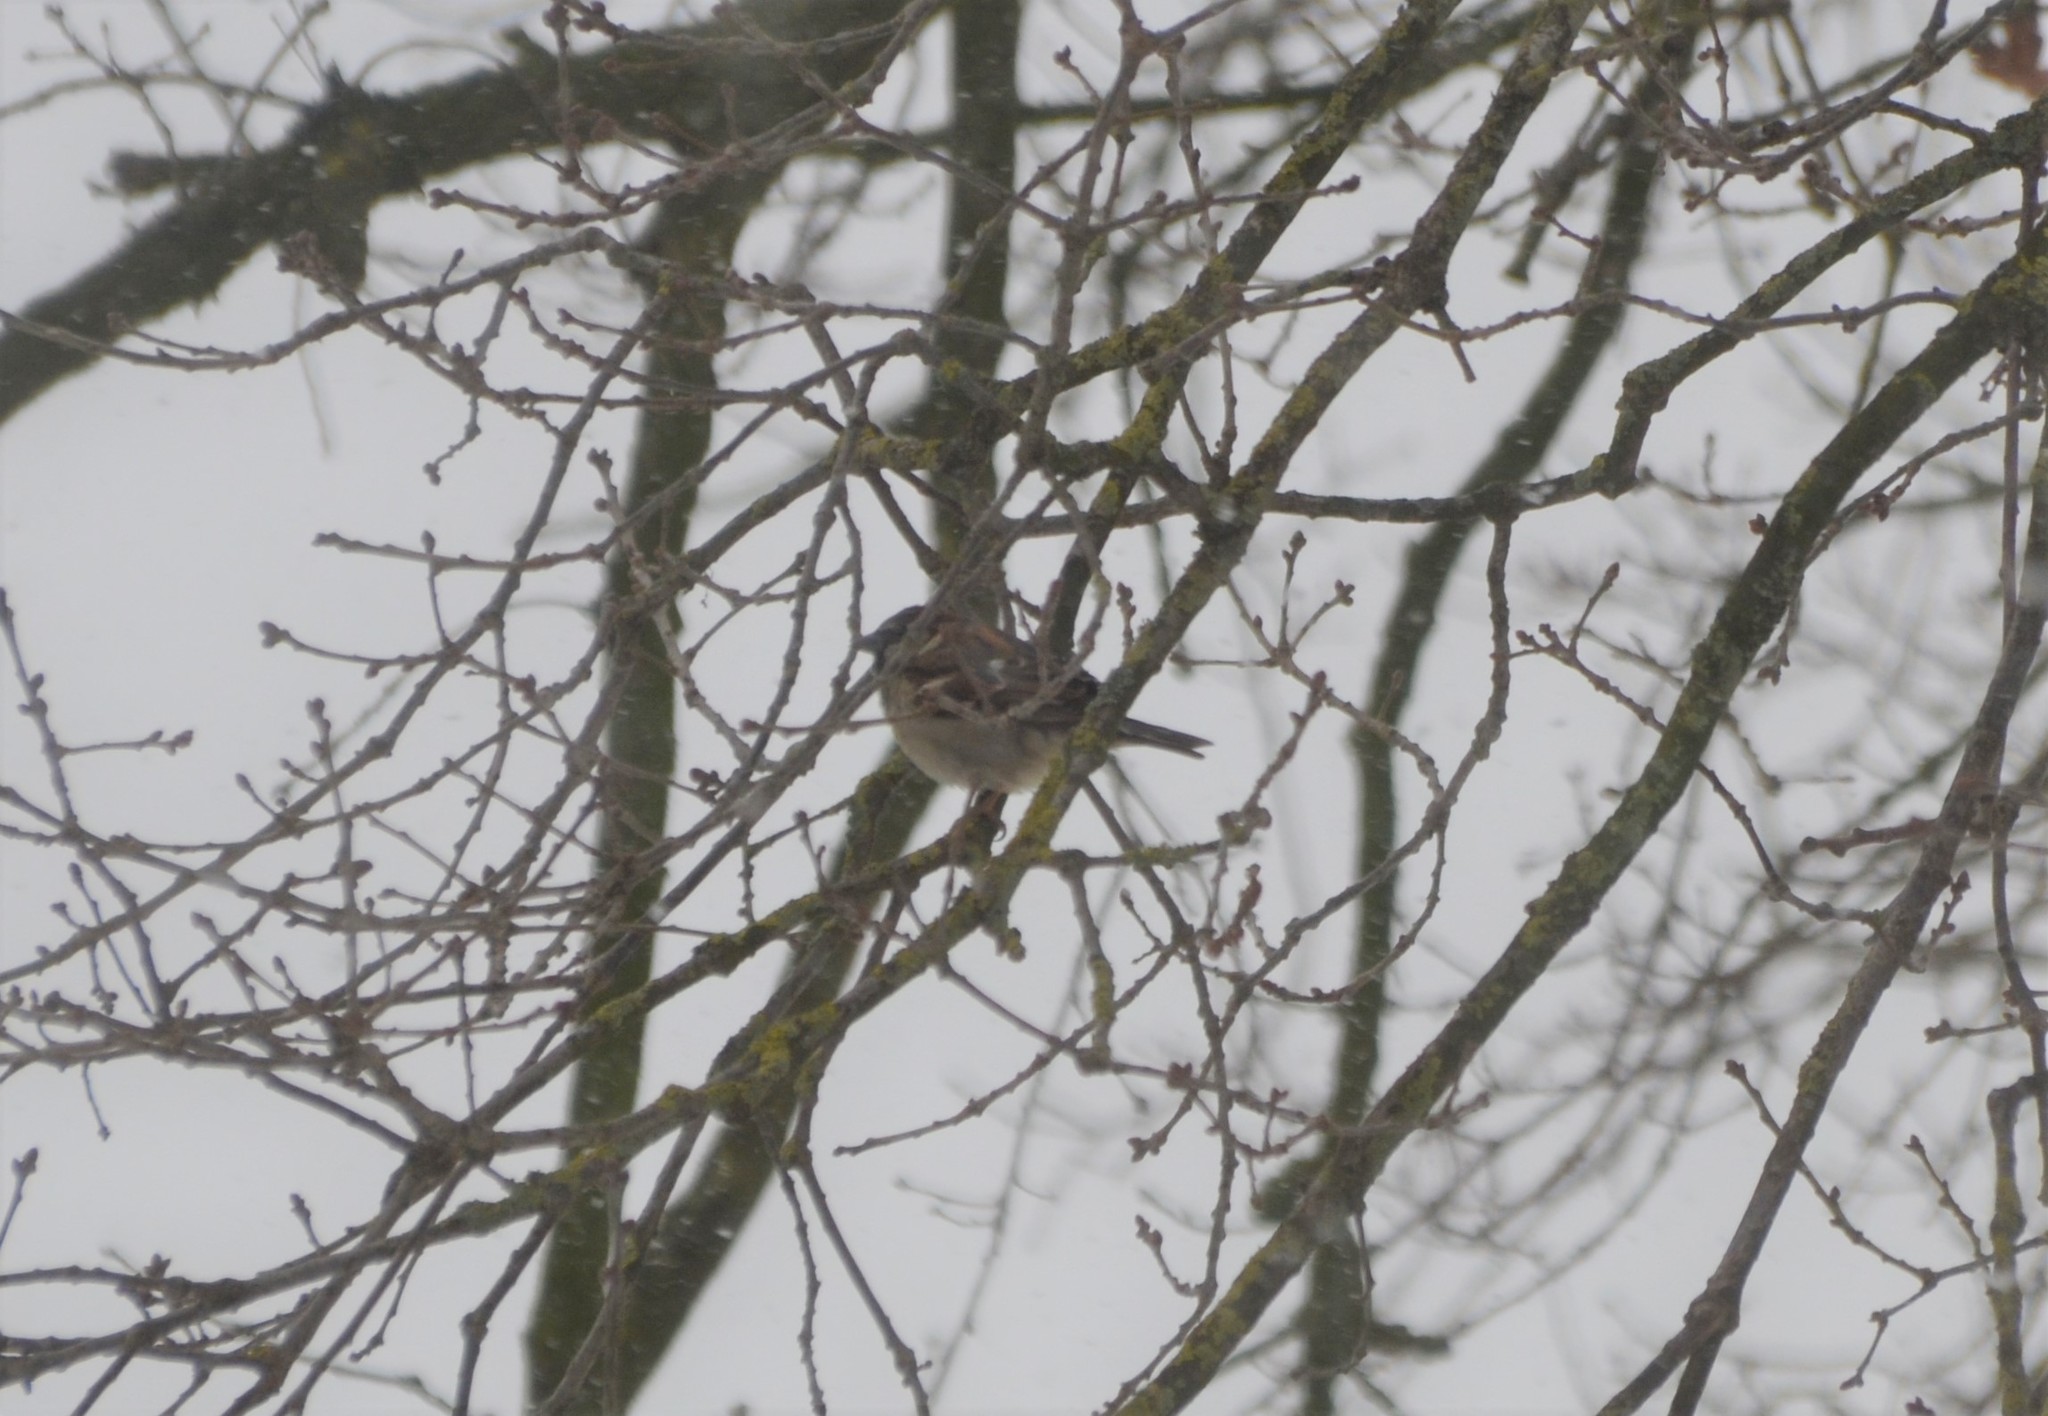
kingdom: Animalia
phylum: Chordata
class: Aves
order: Passeriformes
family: Passeridae
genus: Passer
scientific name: Passer domesticus
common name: House sparrow
